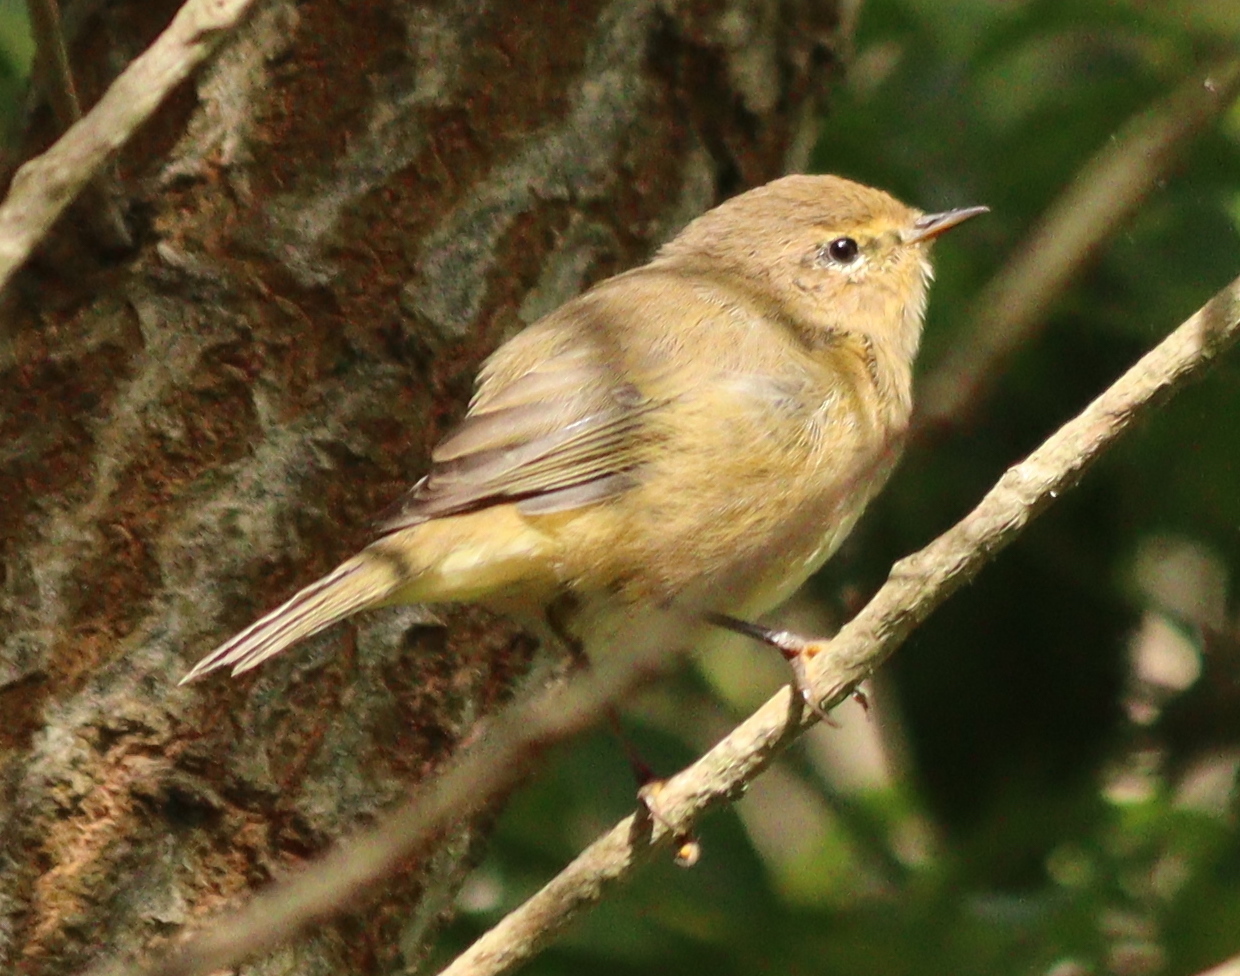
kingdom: Animalia
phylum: Chordata
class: Aves
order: Passeriformes
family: Phylloscopidae
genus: Phylloscopus
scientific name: Phylloscopus collybita
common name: Common chiffchaff
